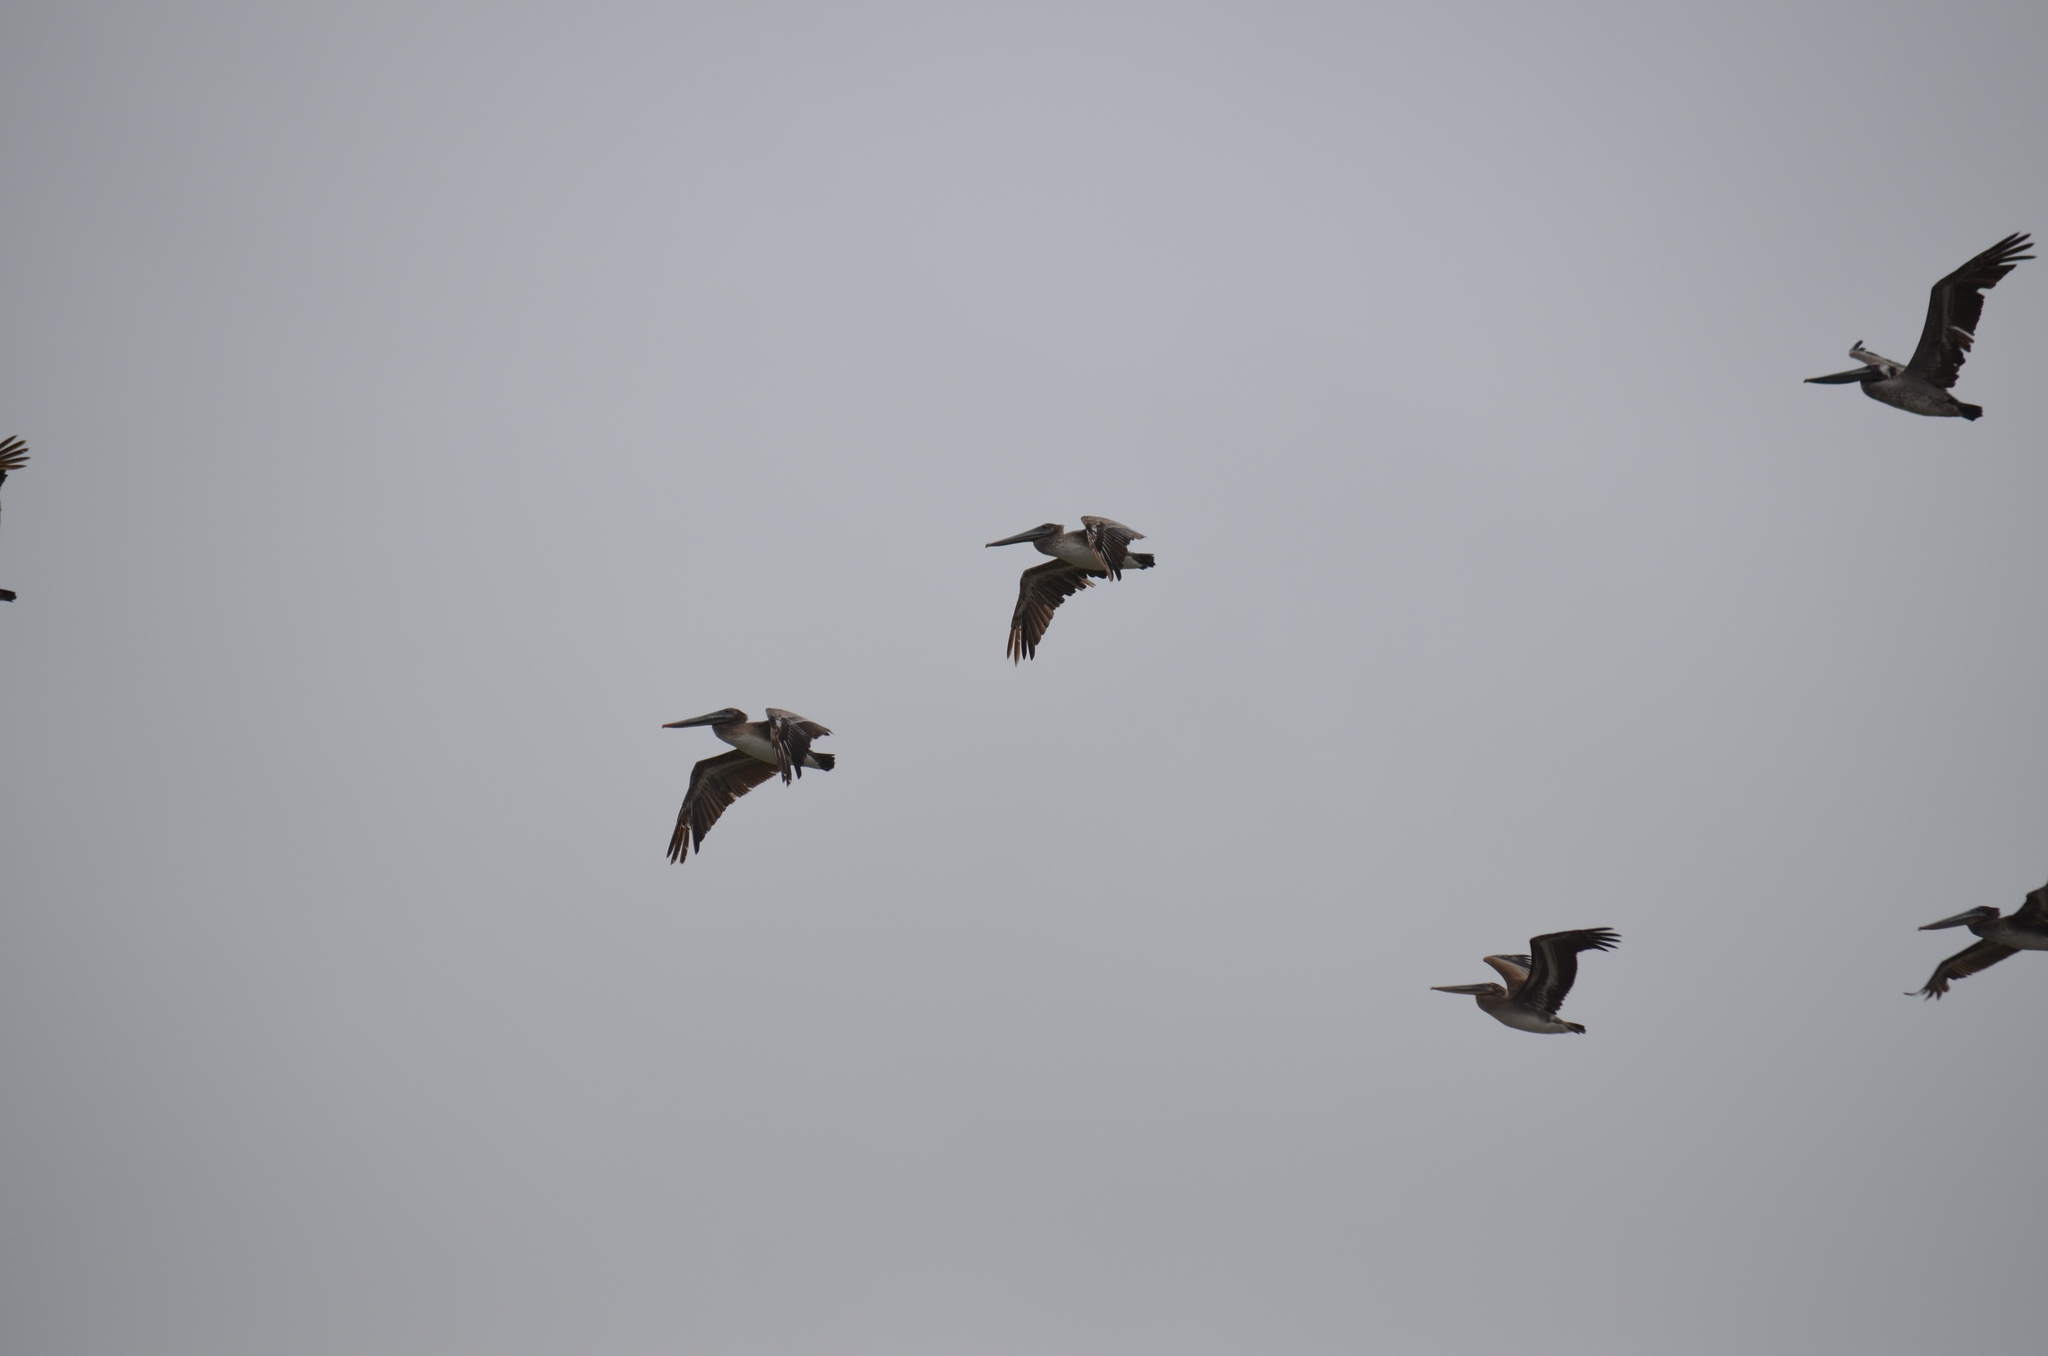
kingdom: Animalia
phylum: Chordata
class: Aves
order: Pelecaniformes
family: Pelecanidae
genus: Pelecanus
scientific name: Pelecanus occidentalis
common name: Brown pelican
